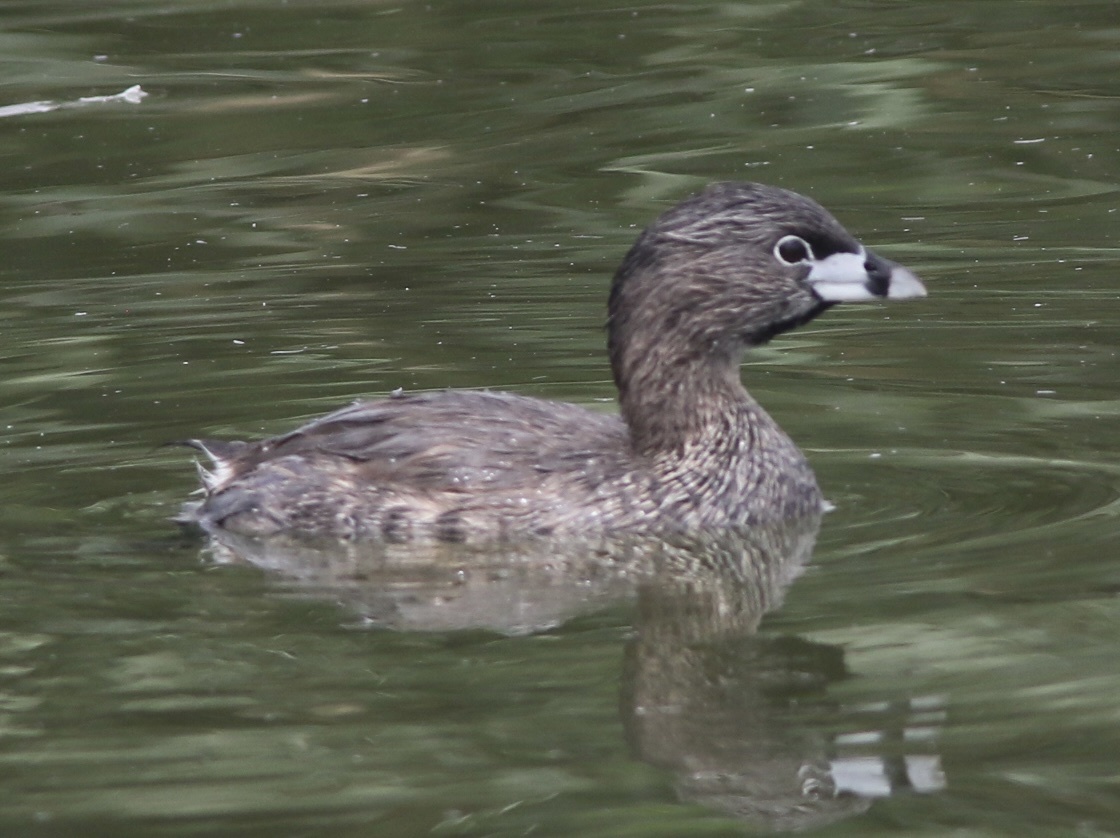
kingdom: Animalia
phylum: Chordata
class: Aves
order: Podicipediformes
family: Podicipedidae
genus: Podilymbus
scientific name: Podilymbus podiceps
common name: Pied-billed grebe
